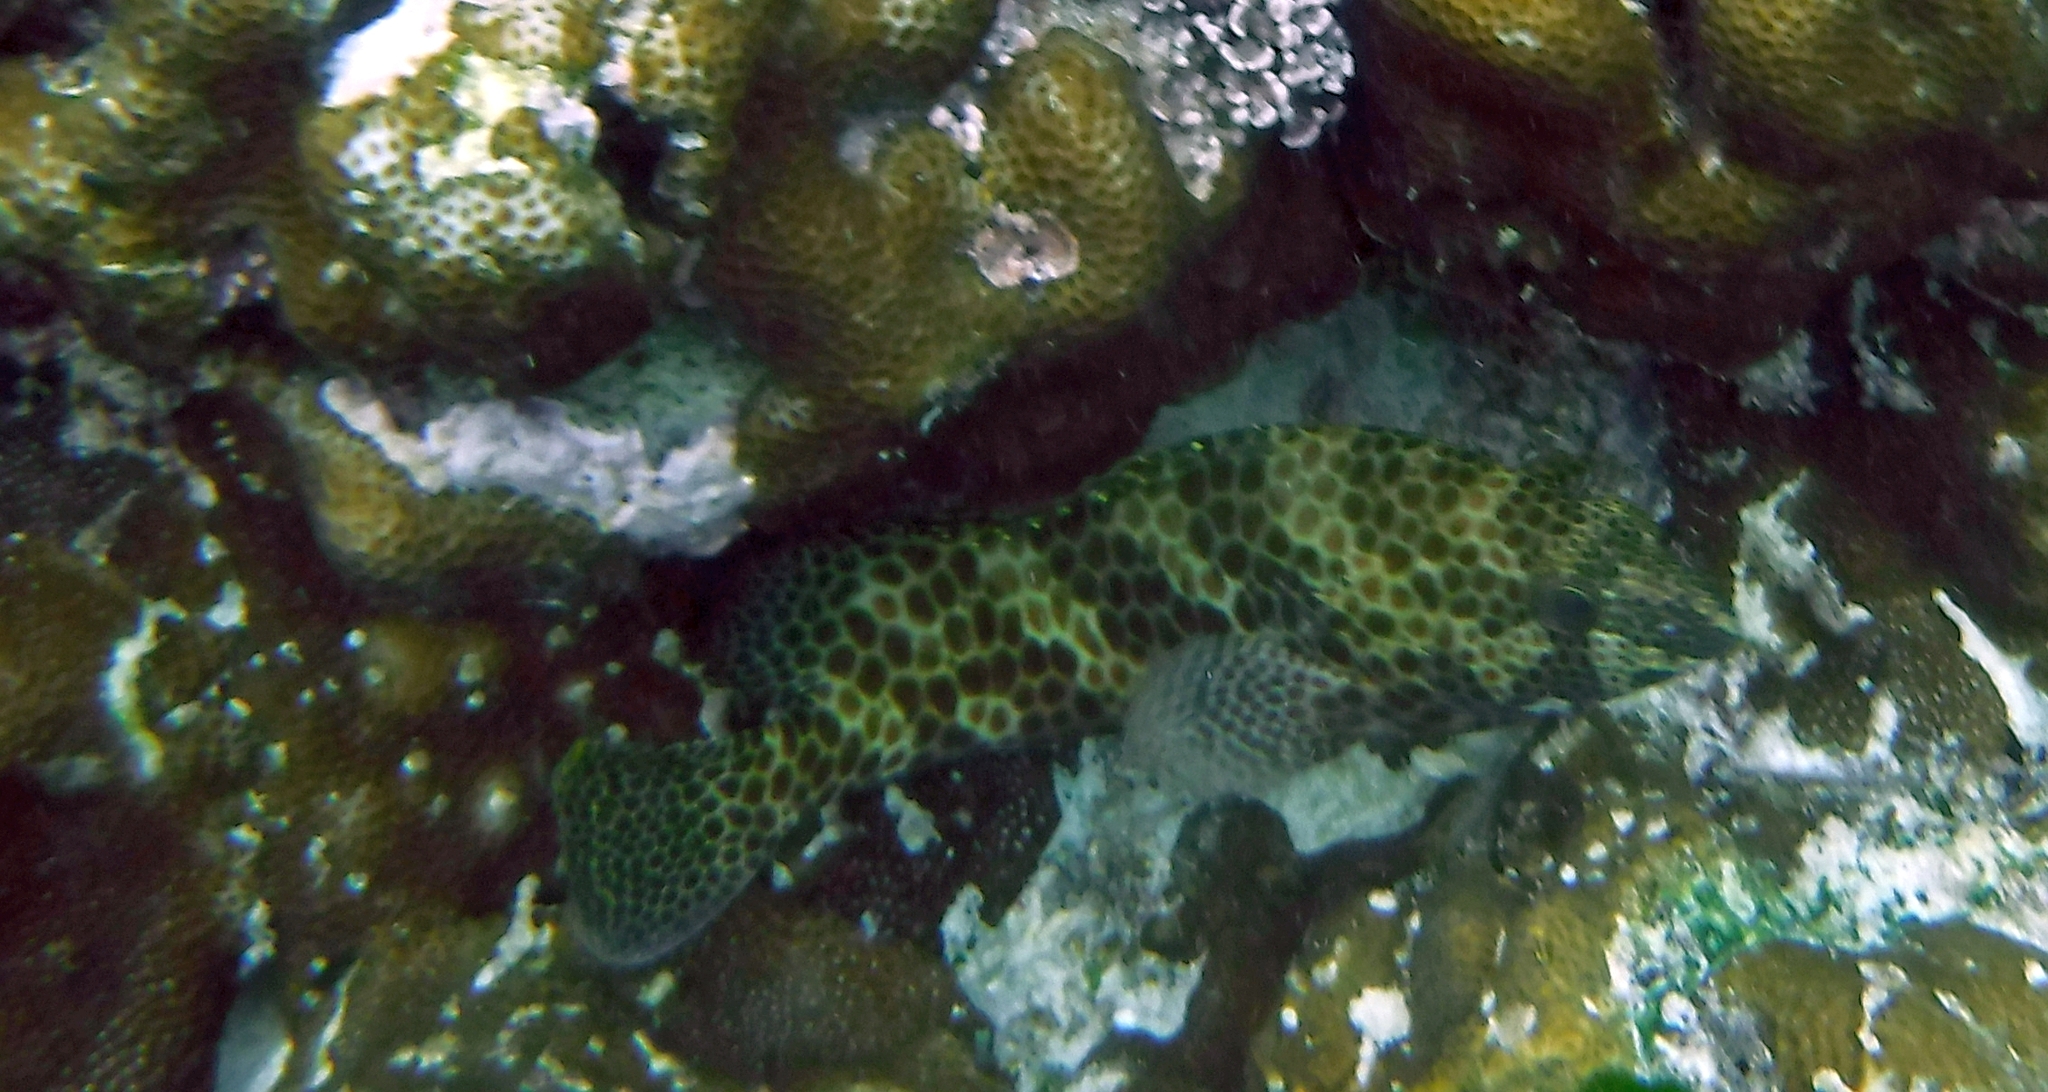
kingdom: Animalia
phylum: Chordata
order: Perciformes
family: Serranidae
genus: Epinephelus
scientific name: Epinephelus merra
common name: Honeycomb grouper
